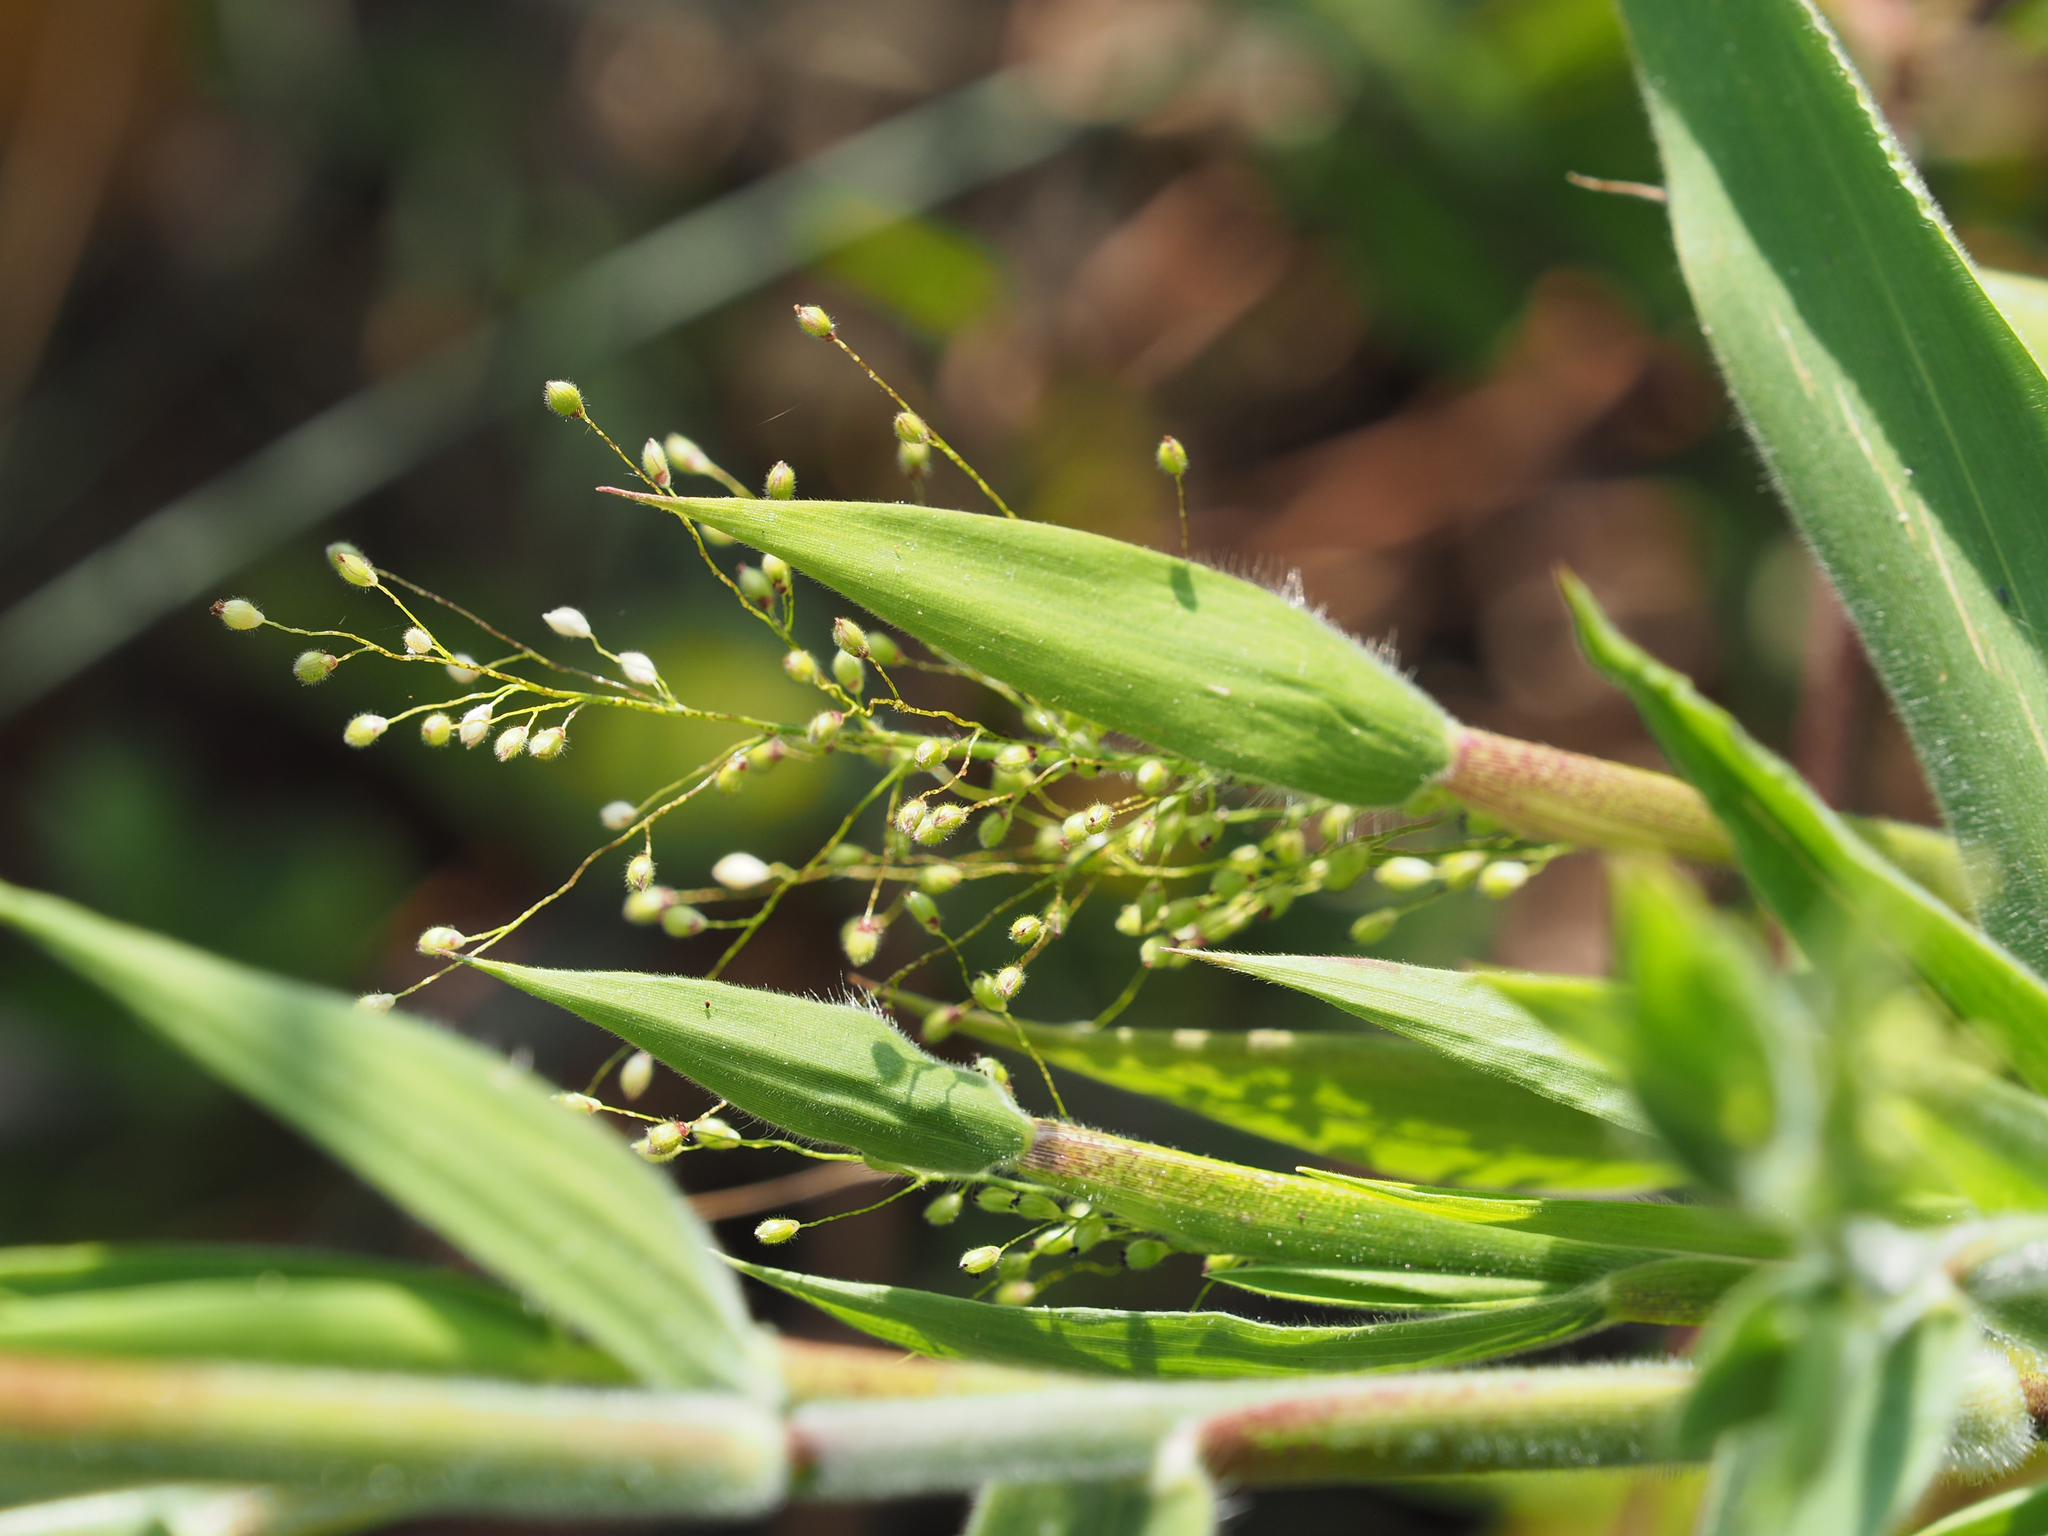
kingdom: Plantae
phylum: Tracheophyta
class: Liliopsida
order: Poales
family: Poaceae
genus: Dichanthelium
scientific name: Dichanthelium scoparium
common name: Velvety panic grass
